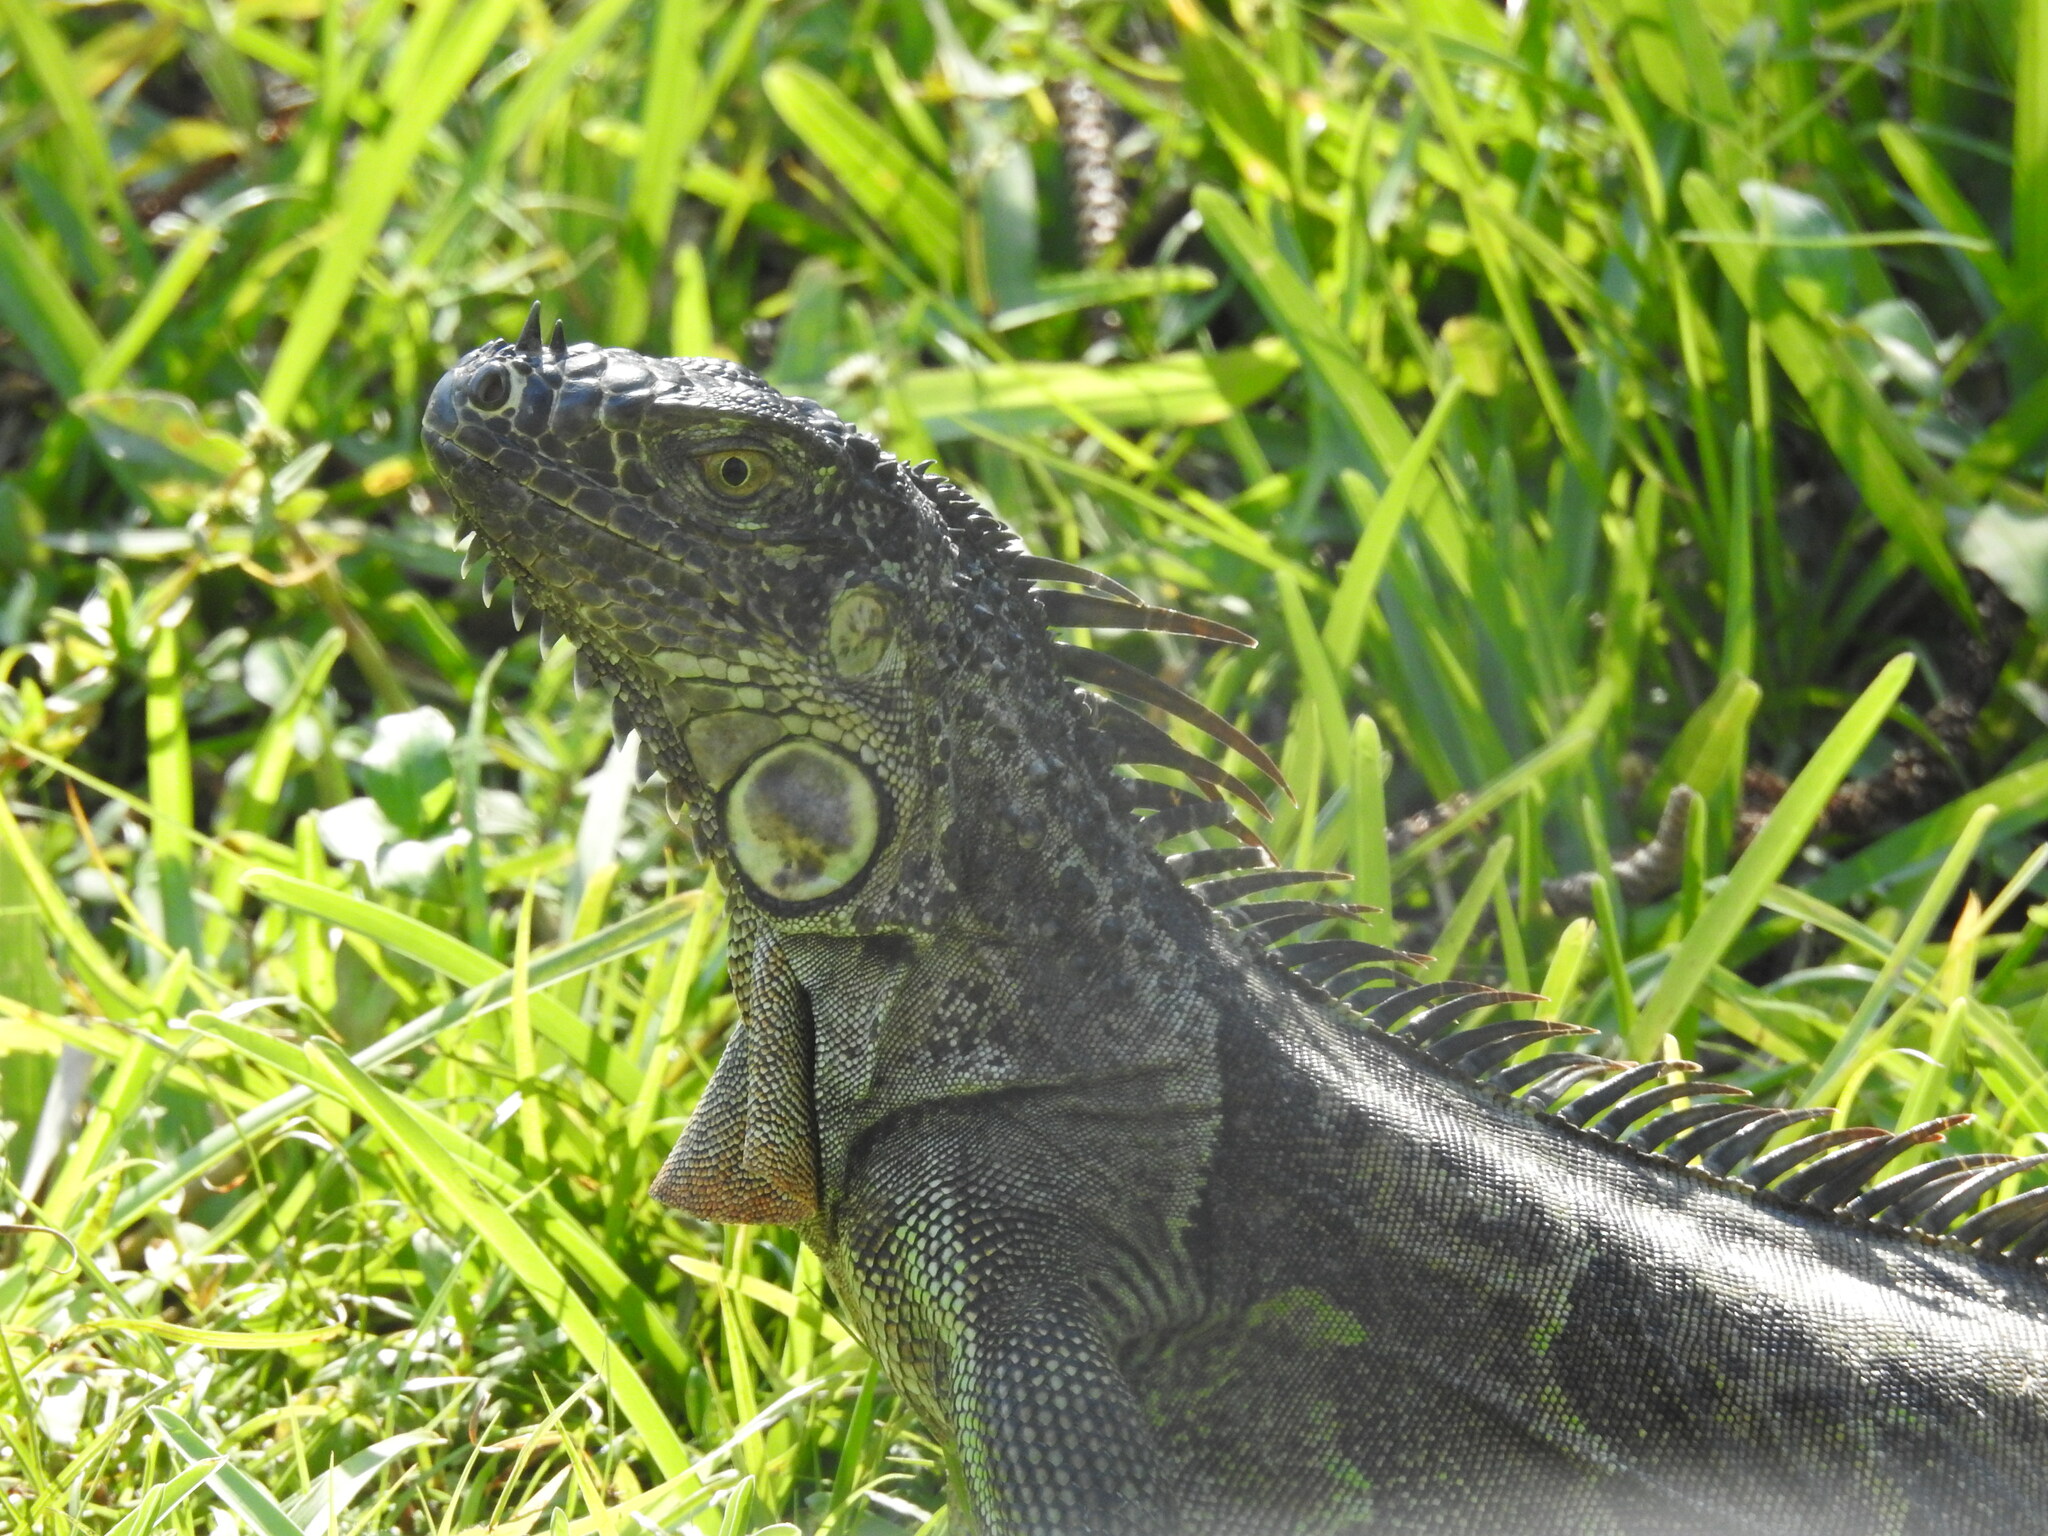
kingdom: Animalia
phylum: Chordata
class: Squamata
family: Iguanidae
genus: Iguana
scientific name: Iguana iguana
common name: Green iguana
